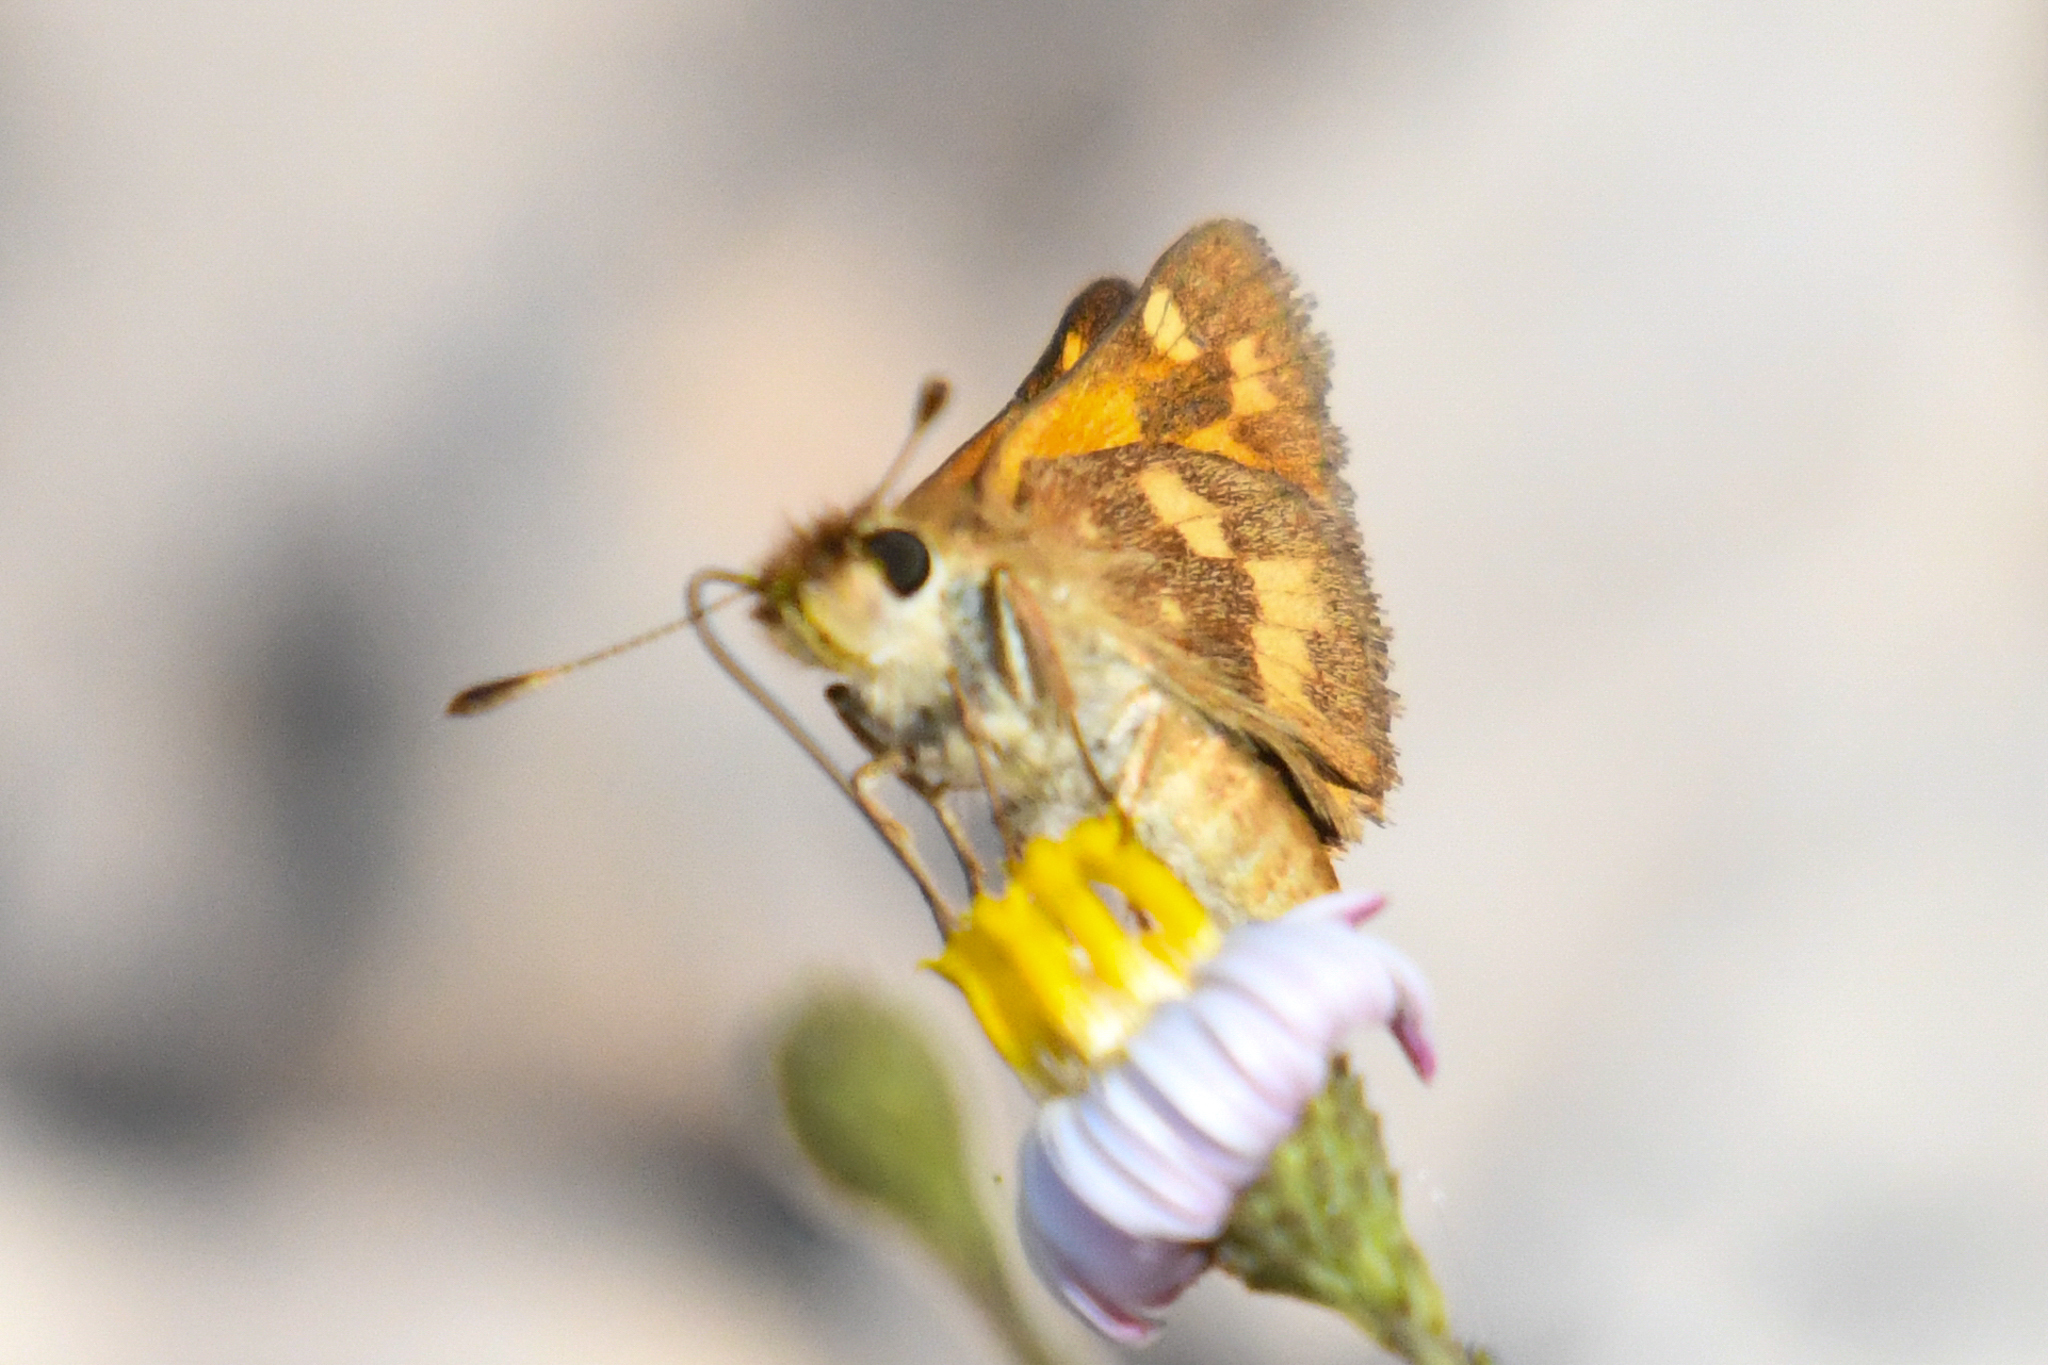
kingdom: Animalia
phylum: Arthropoda
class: Insecta
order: Lepidoptera
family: Hesperiidae
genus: Ochlodes
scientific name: Ochlodes sylvanoides
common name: Woodland skipper
